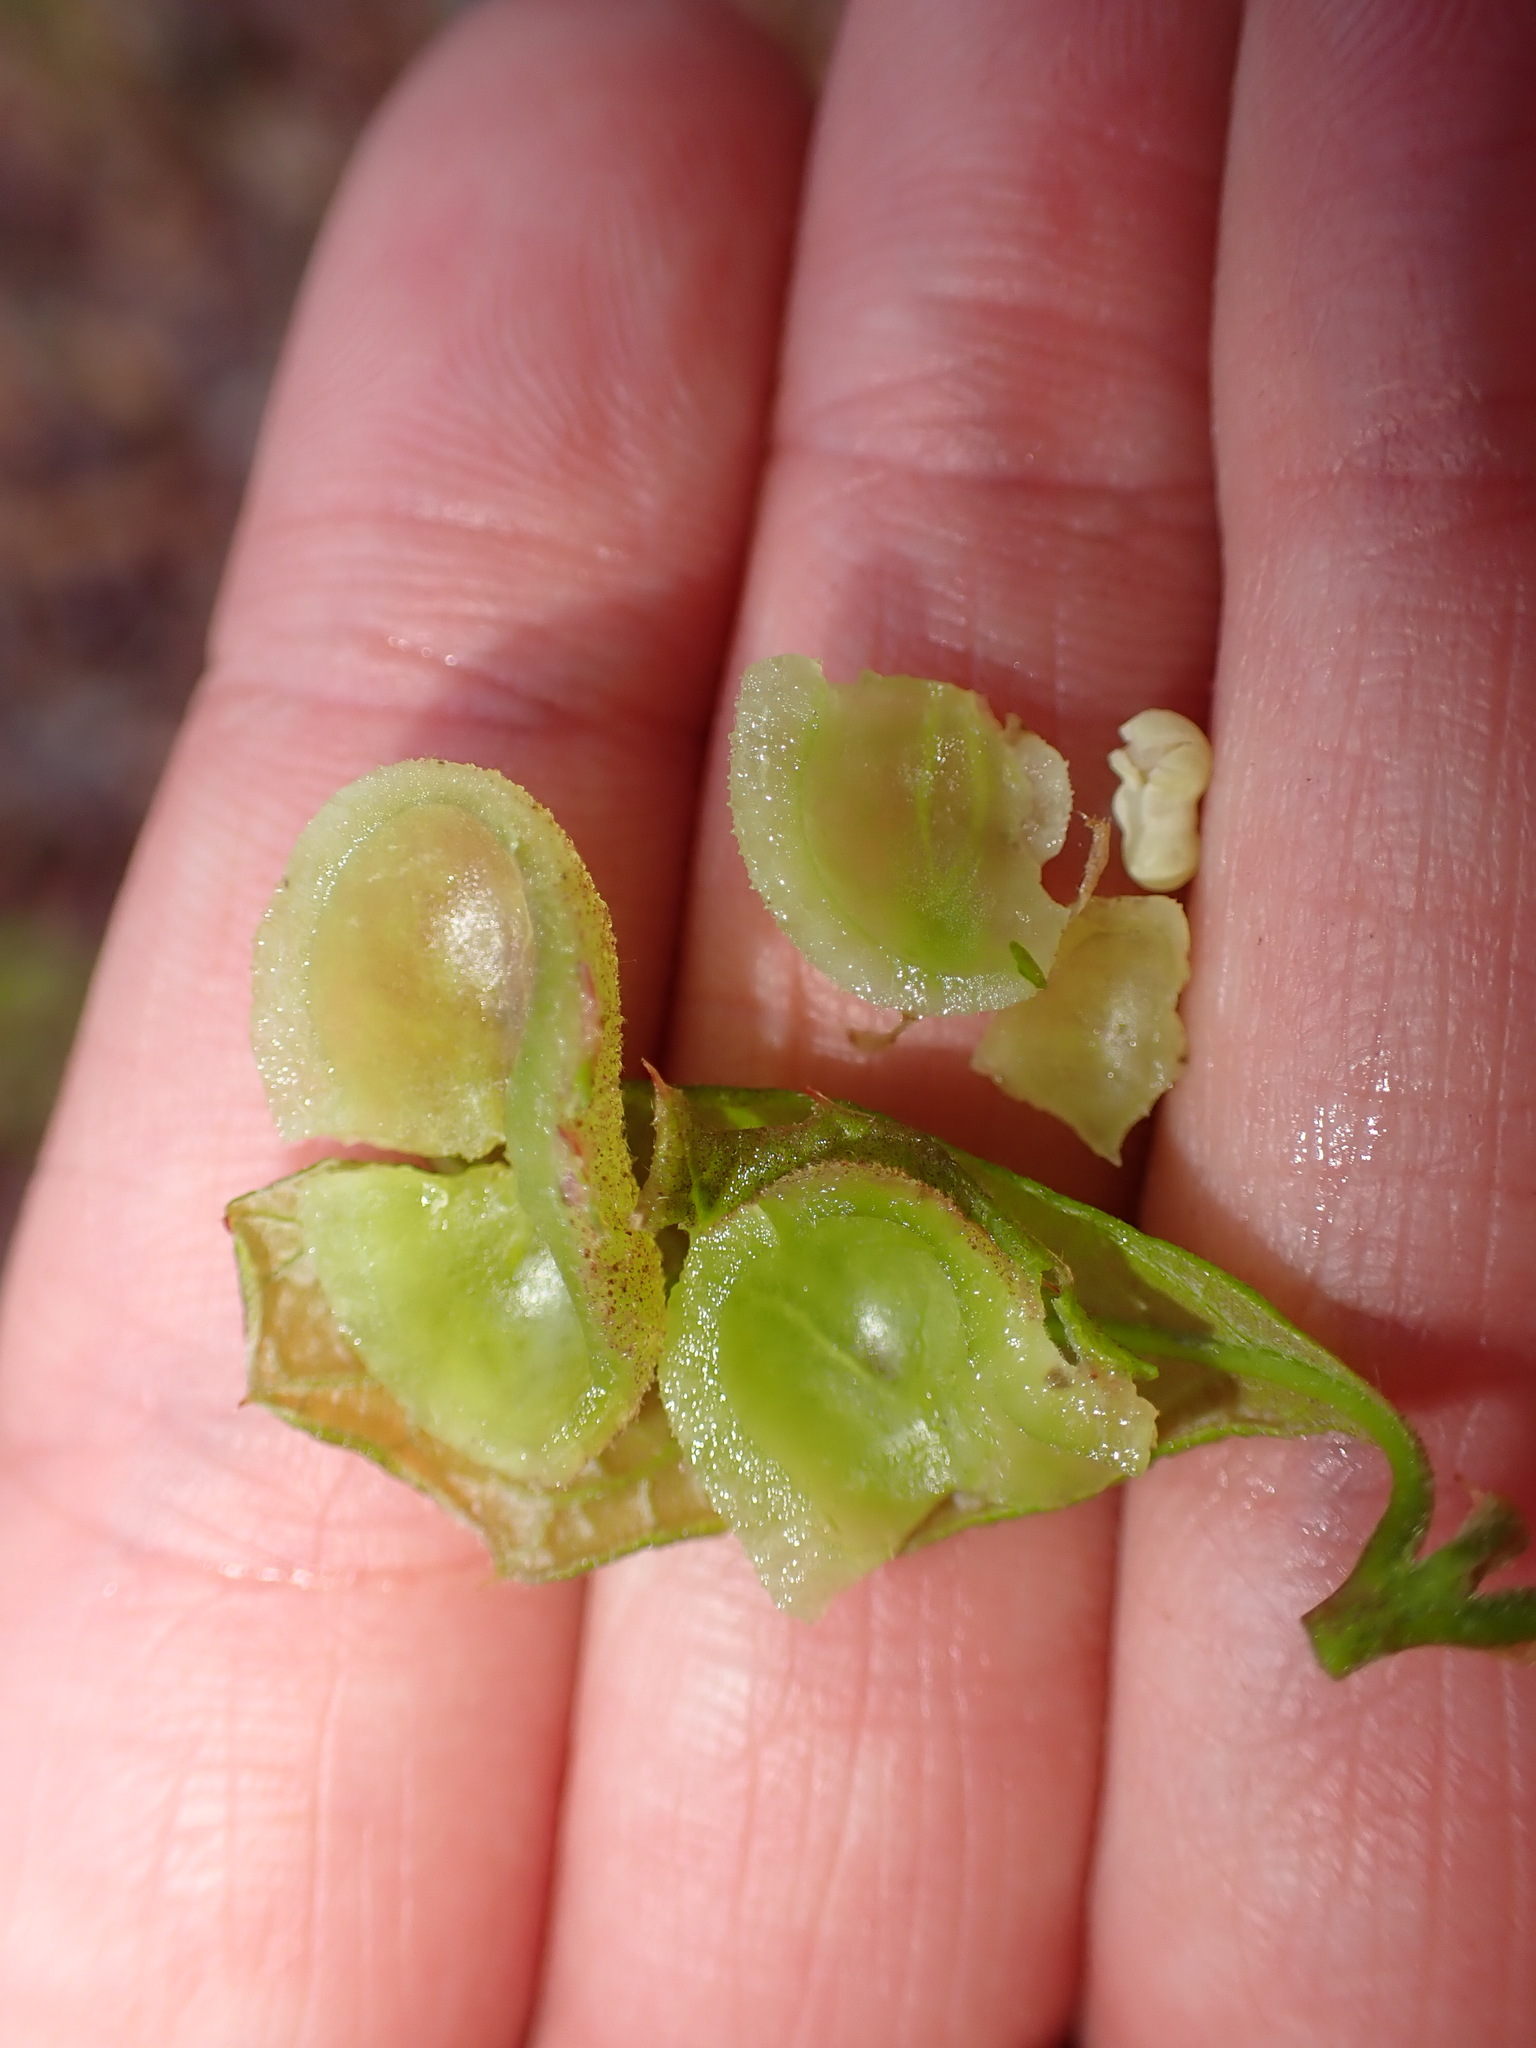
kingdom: Animalia
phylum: Arthropoda
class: Insecta
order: Hymenoptera
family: Cynipidae
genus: Dryocosmus
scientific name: Dryocosmus quercuspalustris
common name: Succulent oak gall wasp
